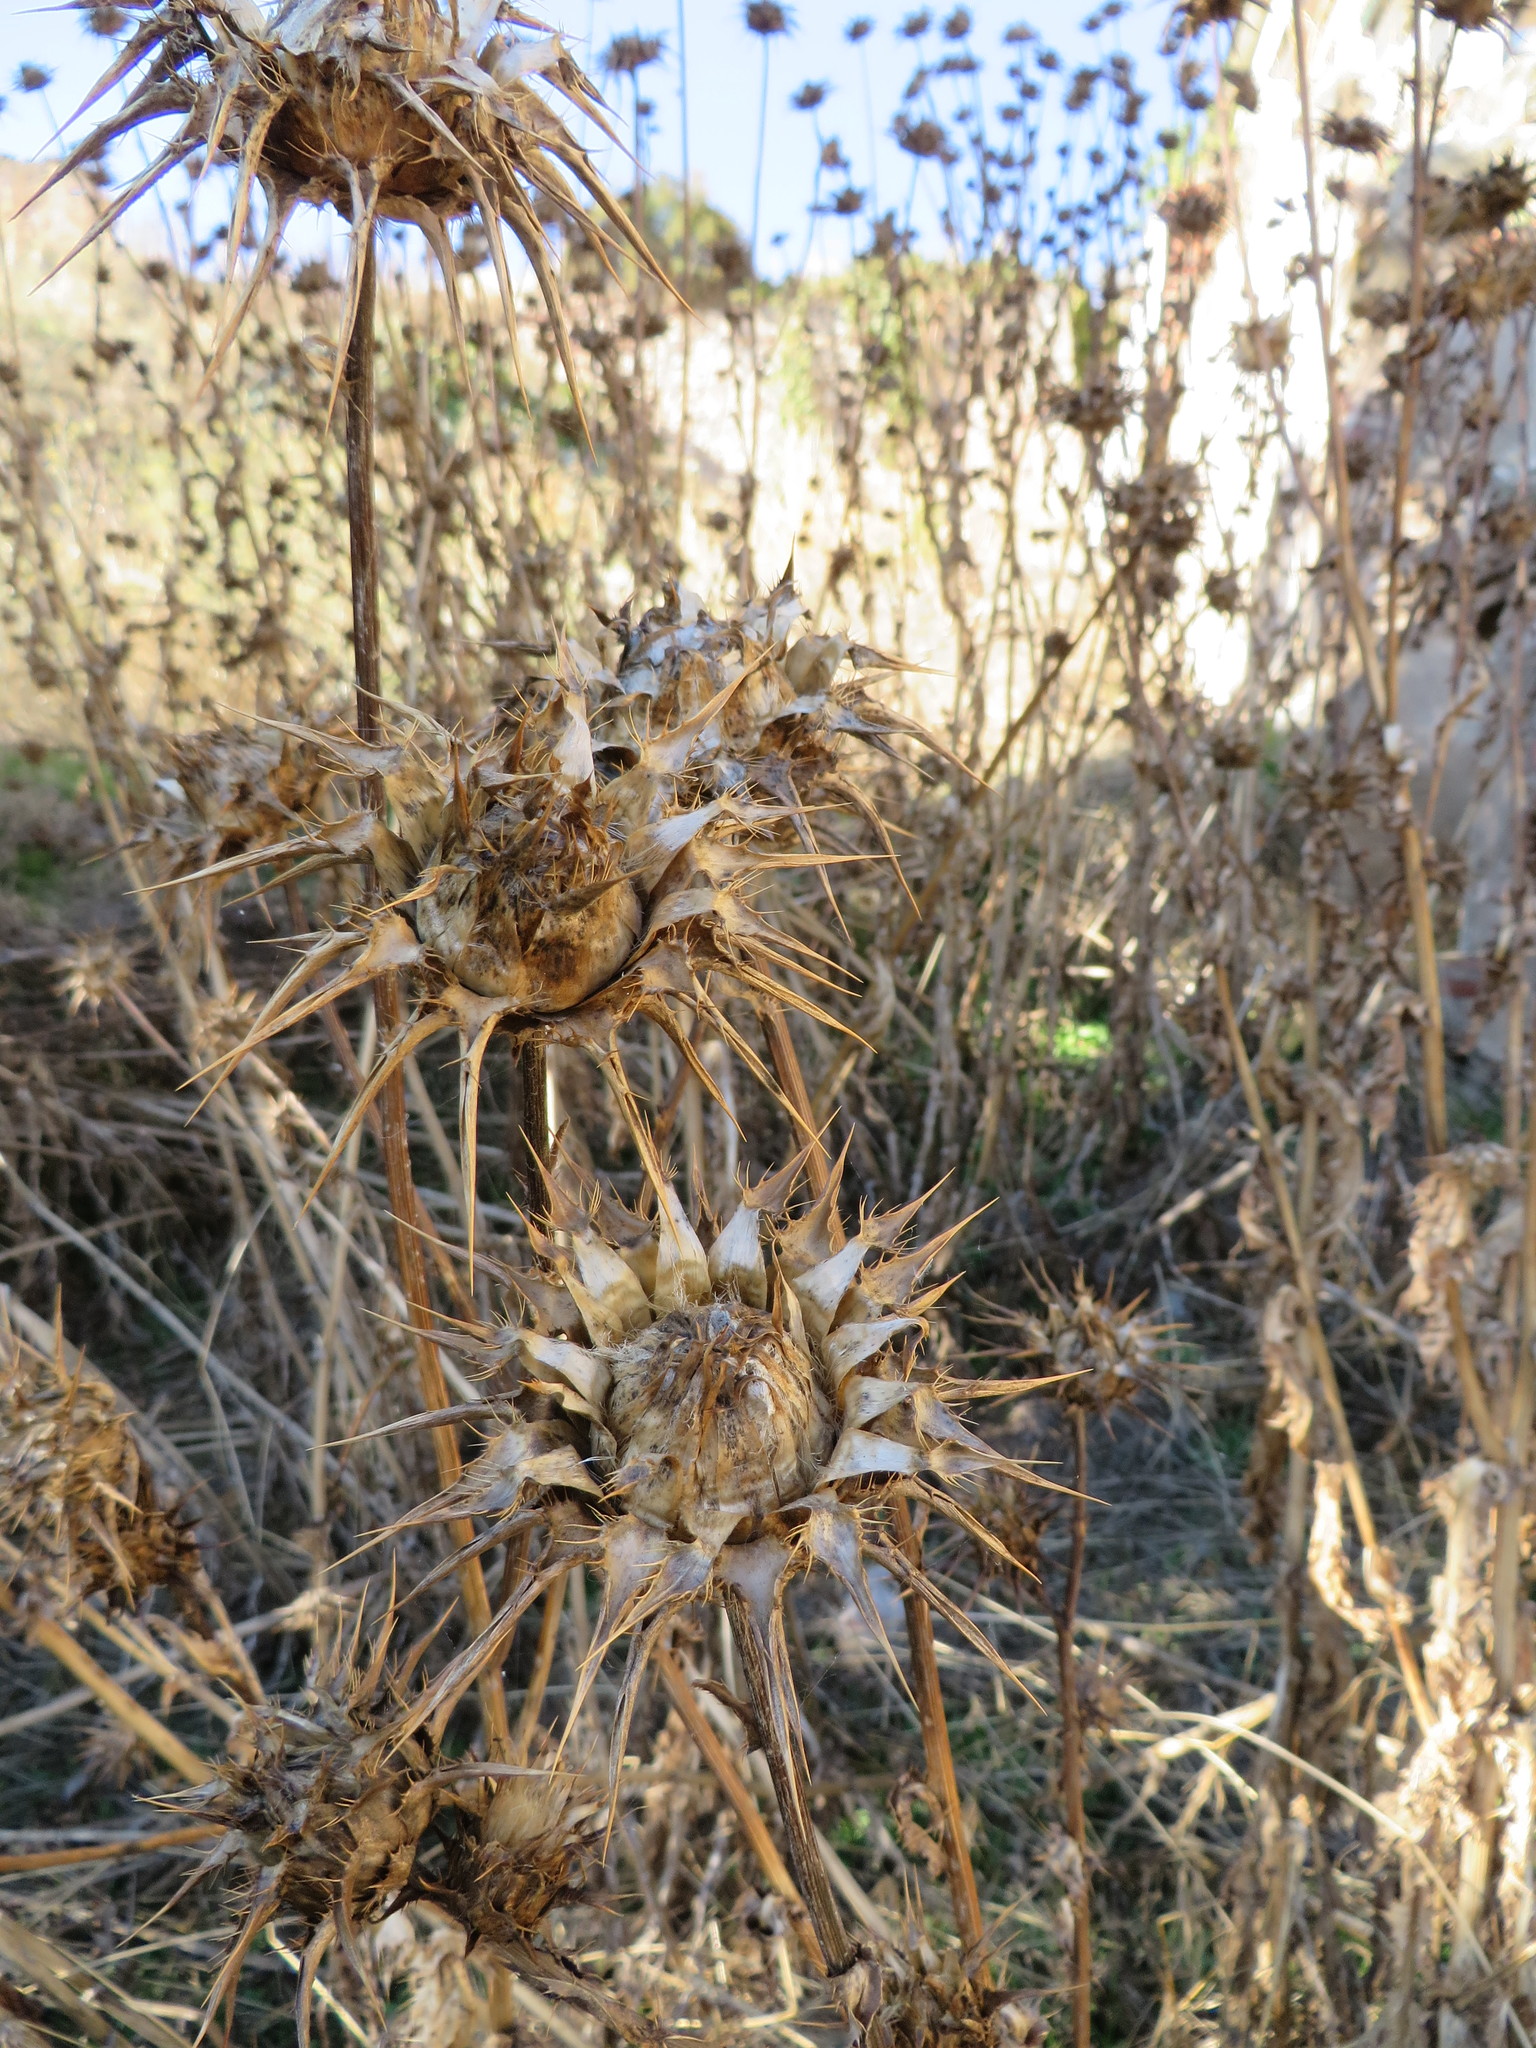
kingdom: Plantae
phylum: Tracheophyta
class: Magnoliopsida
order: Asterales
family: Asteraceae
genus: Silybum
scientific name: Silybum marianum
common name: Milk thistle
